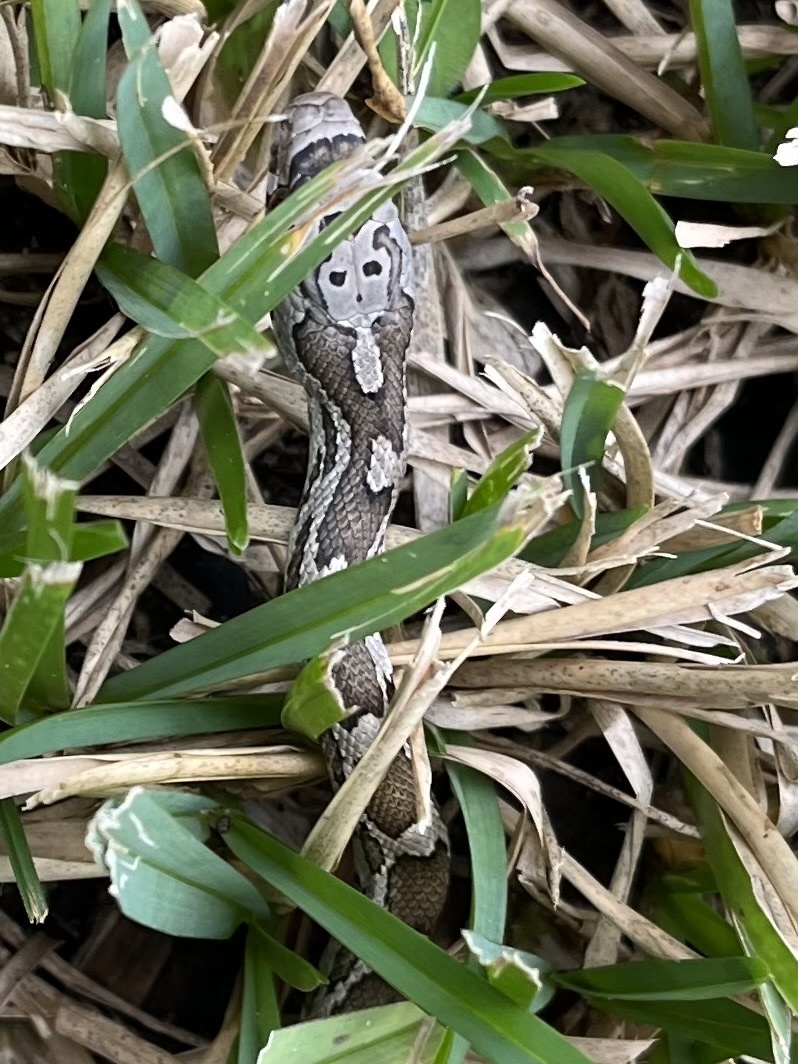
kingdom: Animalia
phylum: Chordata
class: Squamata
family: Colubridae
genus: Pantherophis
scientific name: Pantherophis obsoletus
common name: Black rat snake
